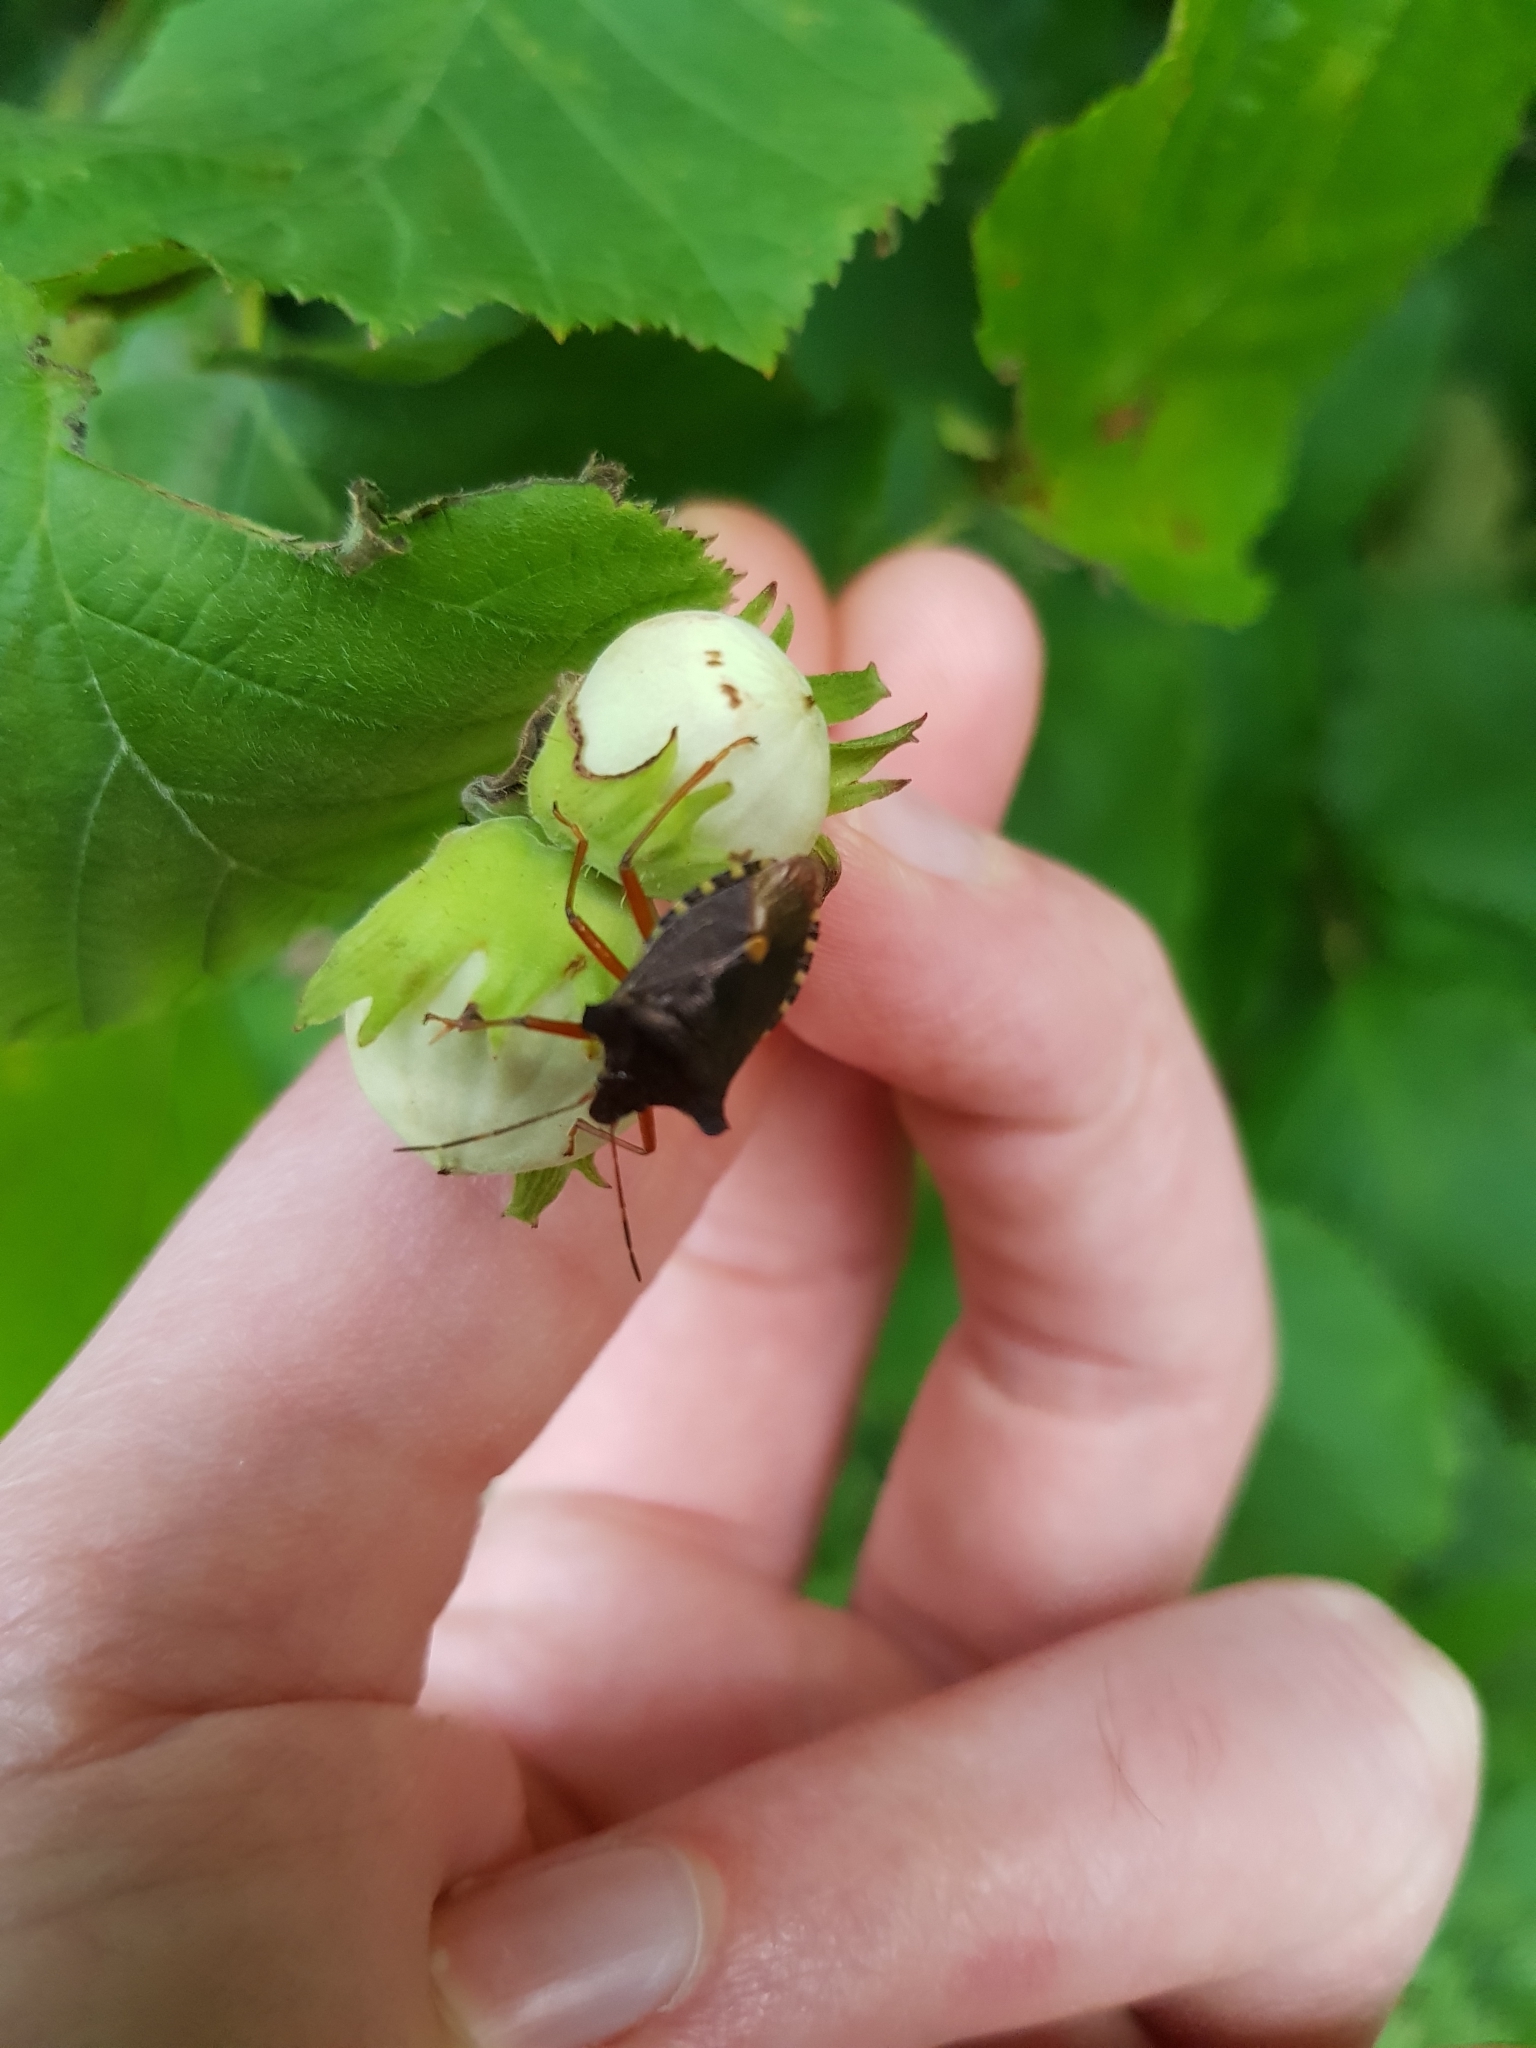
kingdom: Animalia
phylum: Arthropoda
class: Insecta
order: Hemiptera
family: Pentatomidae
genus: Pentatoma
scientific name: Pentatoma rufipes
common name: Forest bug
